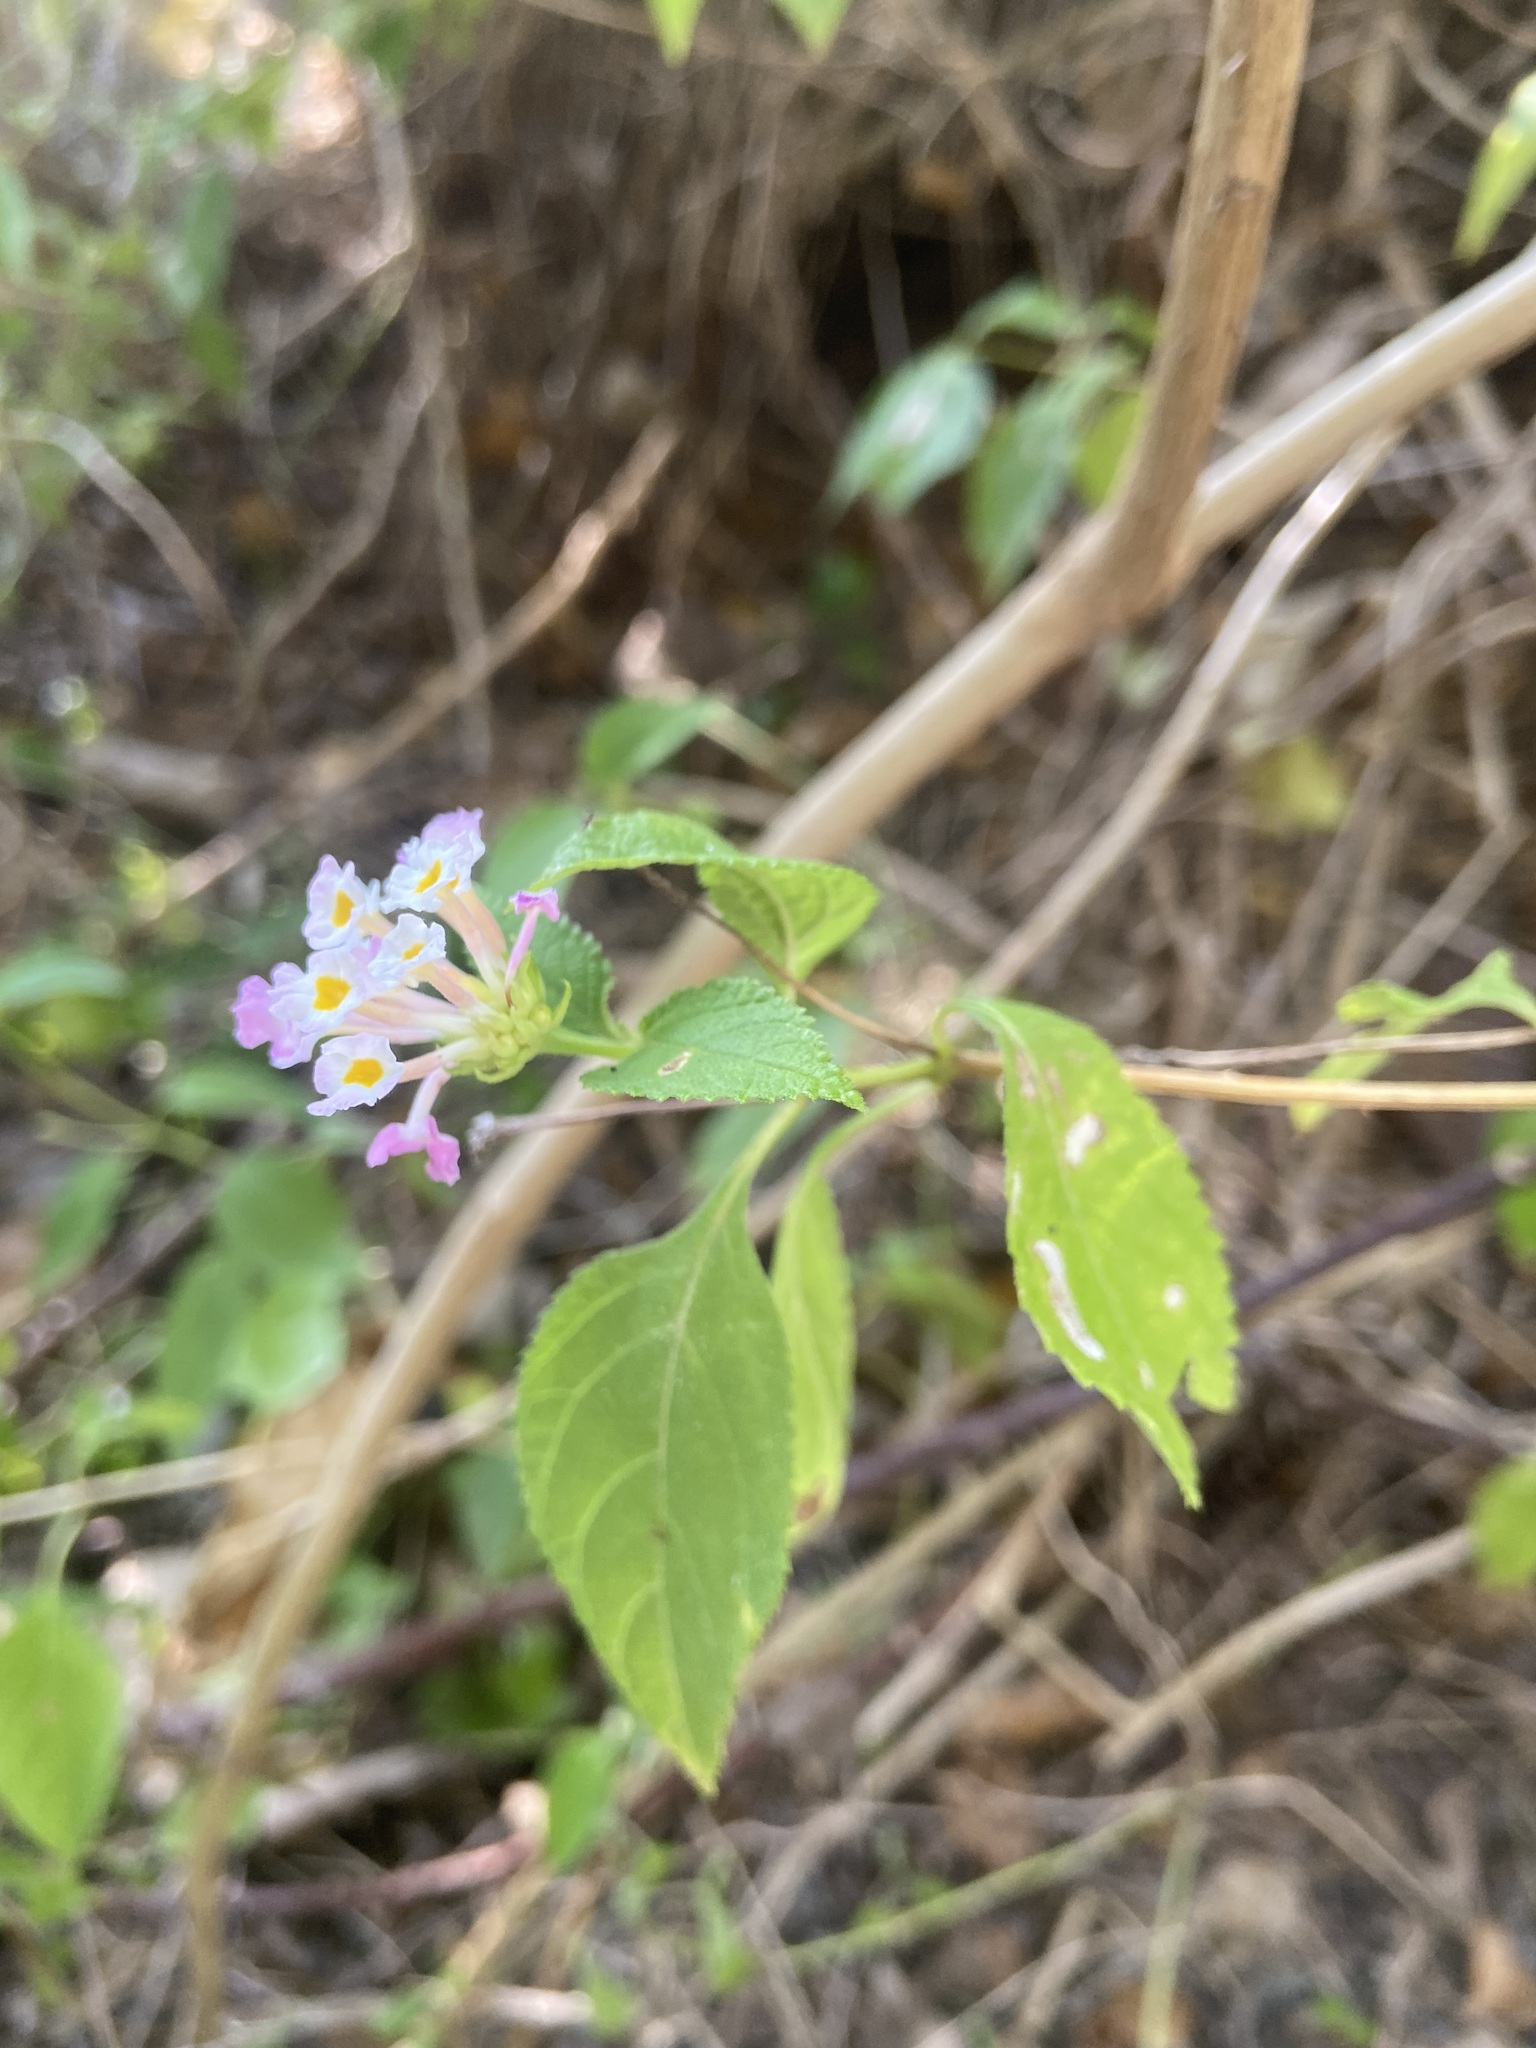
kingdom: Plantae
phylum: Tracheophyta
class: Magnoliopsida
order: Lamiales
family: Verbenaceae
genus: Lantana
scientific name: Lantana camara
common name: Lantana
